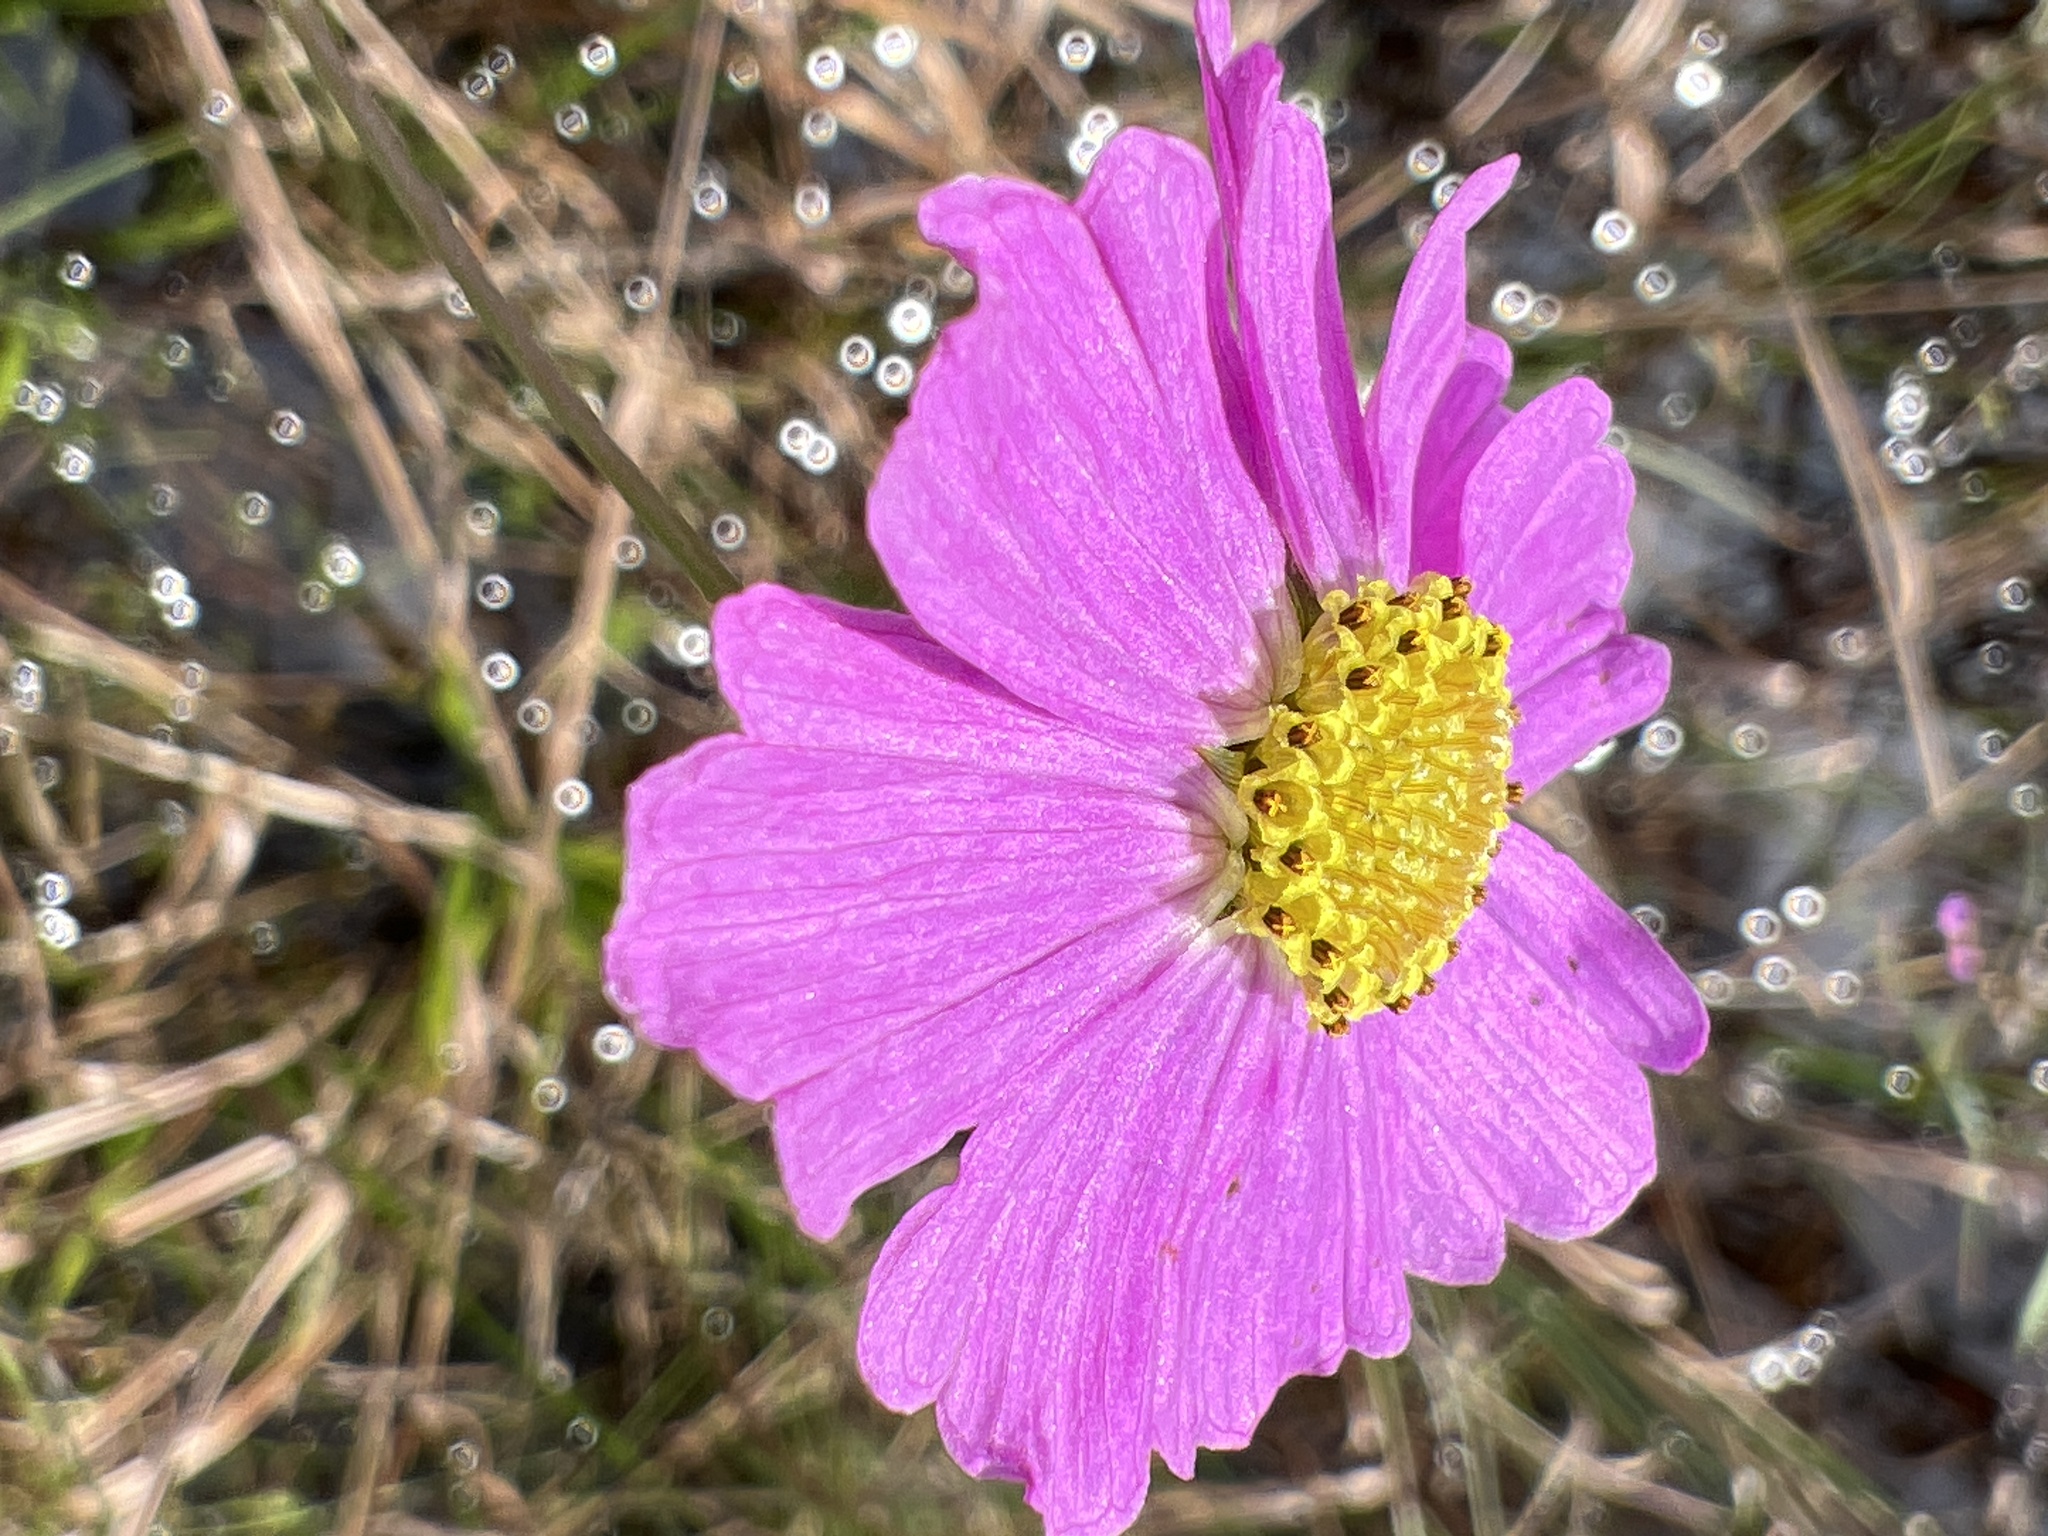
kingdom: Plantae
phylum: Tracheophyta
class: Magnoliopsida
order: Asterales
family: Asteraceae
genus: Coreopsis
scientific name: Coreopsis nudata
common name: Purple tickseed
